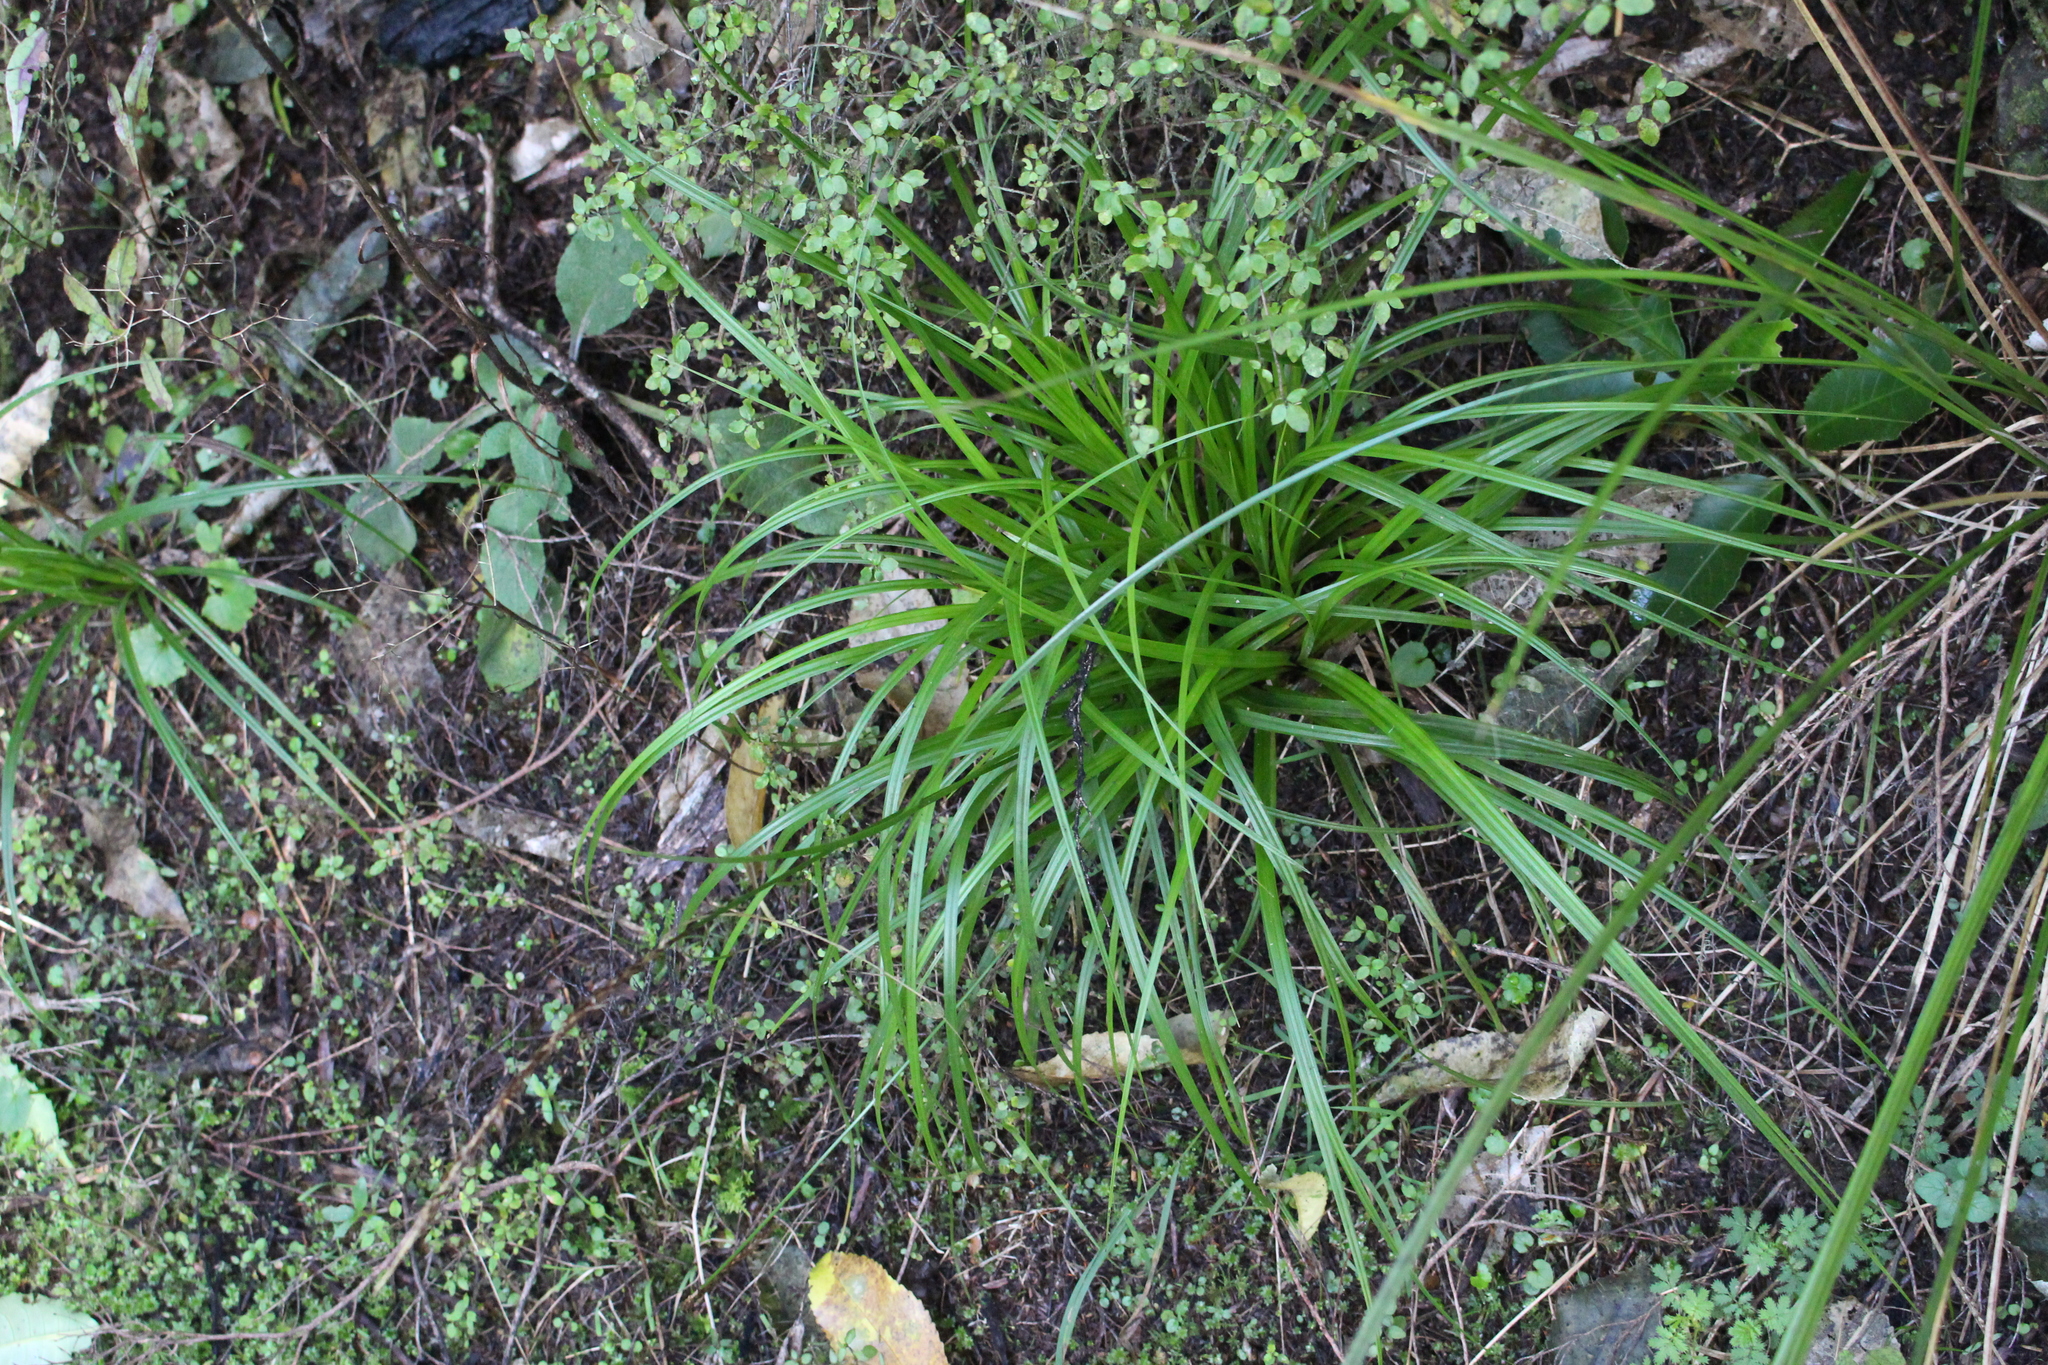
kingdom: Plantae
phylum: Tracheophyta
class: Liliopsida
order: Poales
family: Cyperaceae
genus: Carex
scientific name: Carex megalepis
